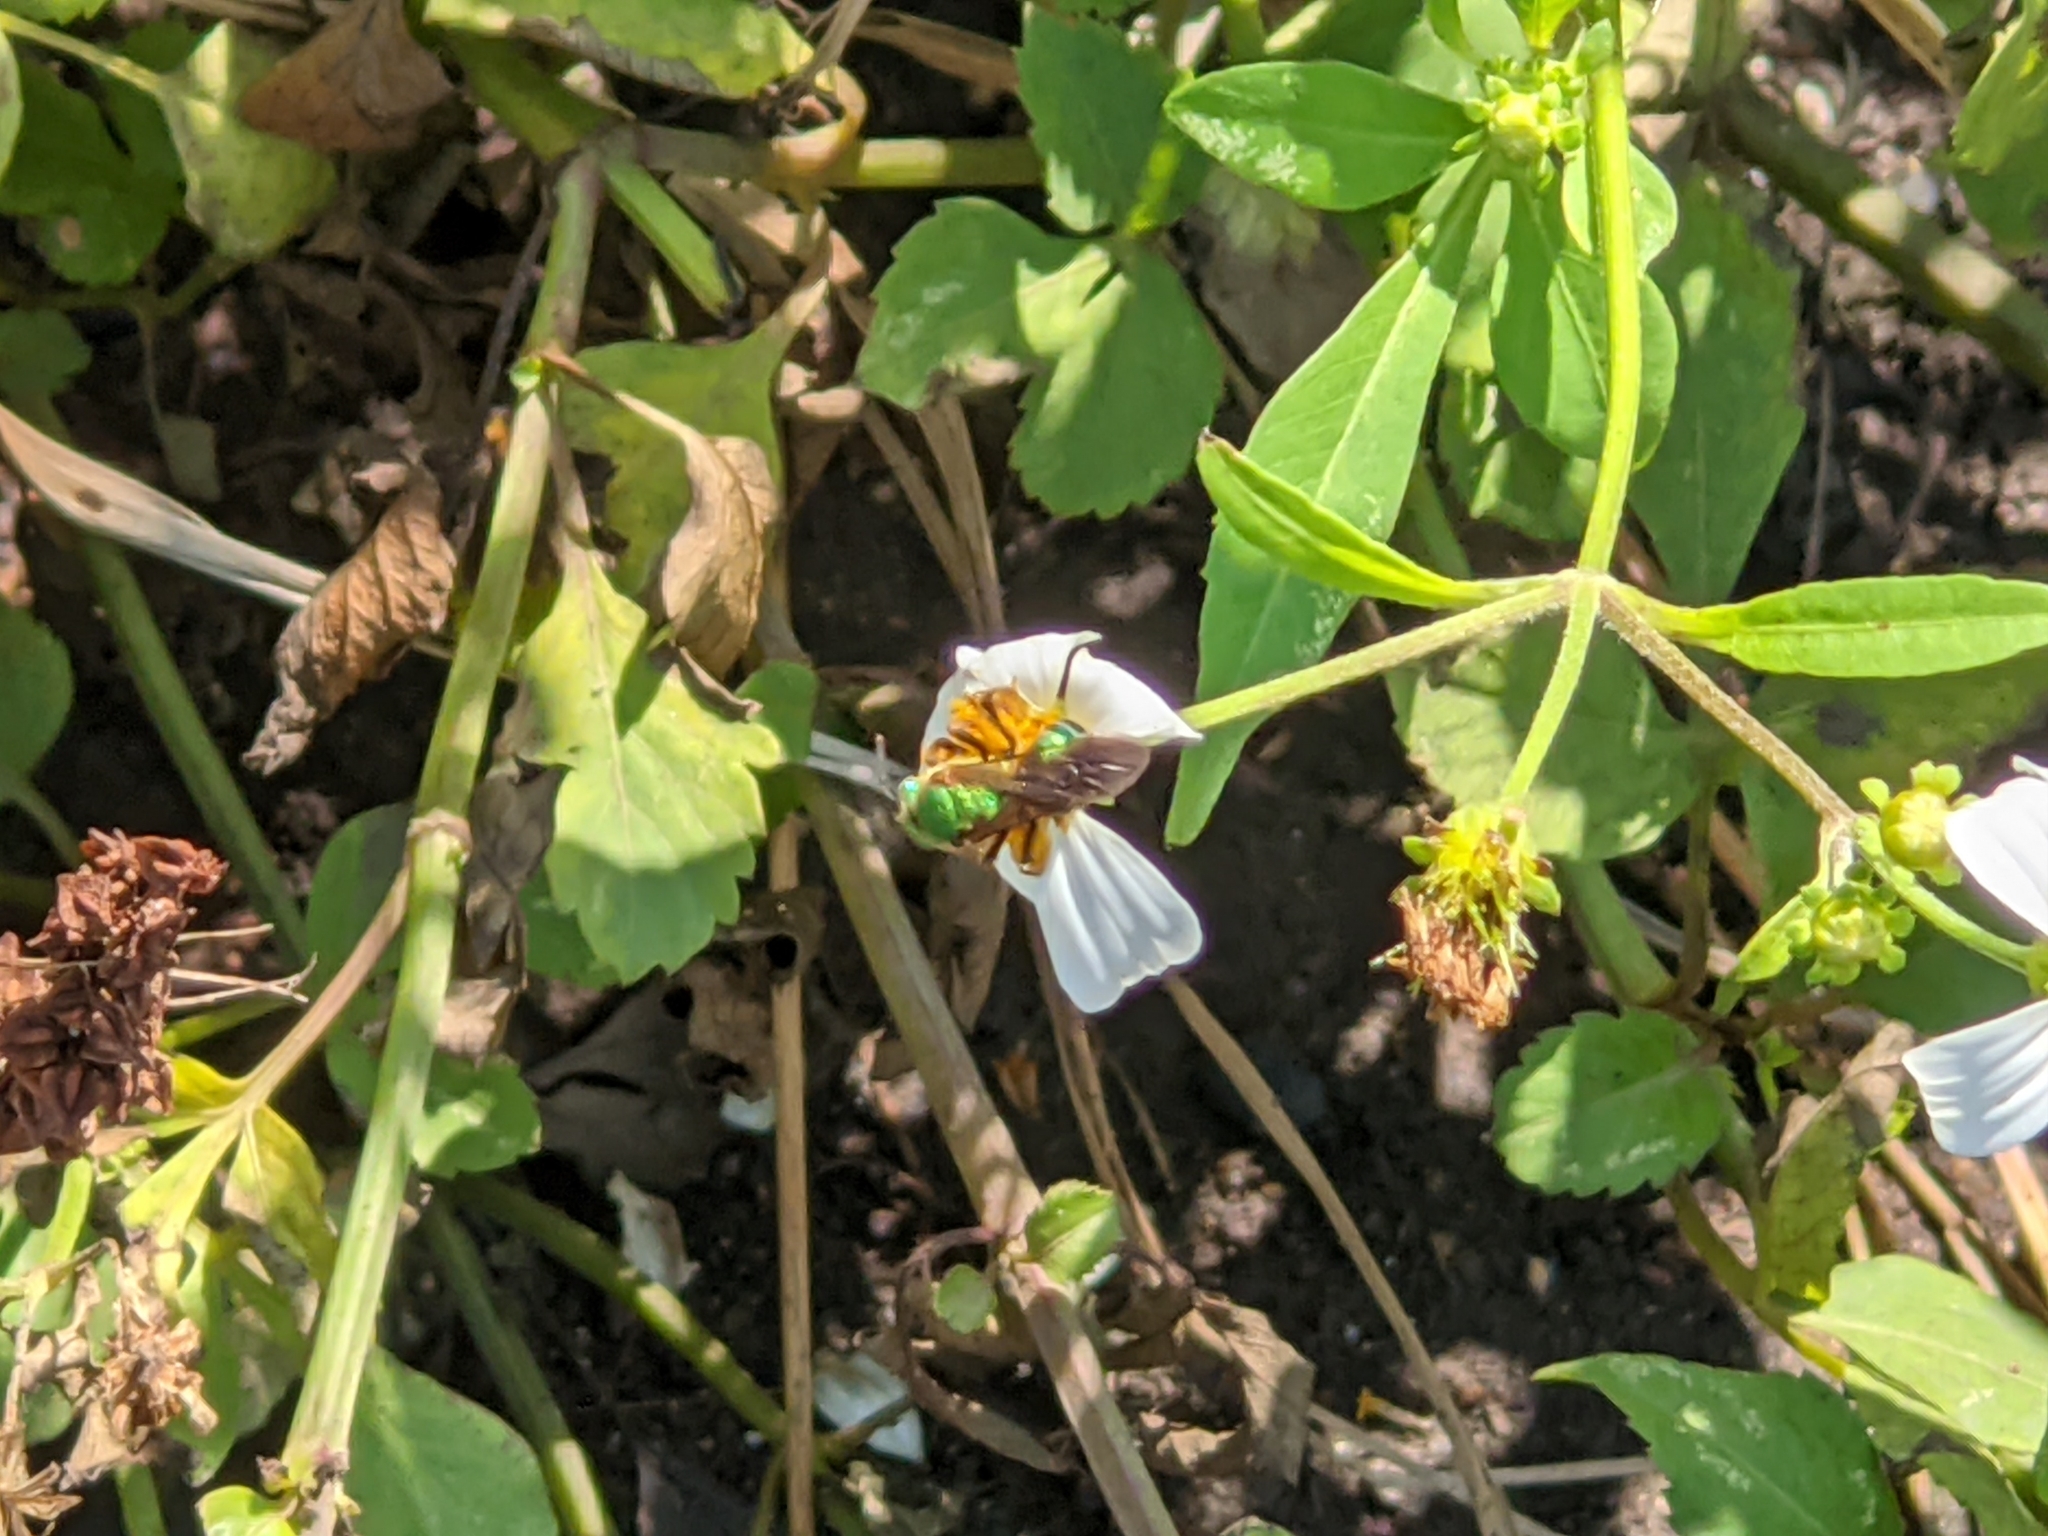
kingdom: Animalia
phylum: Arthropoda
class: Insecta
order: Hymenoptera
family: Halictidae
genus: Agapostemon
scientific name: Agapostemon splendens
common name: Brown-winged striped sweat bee
